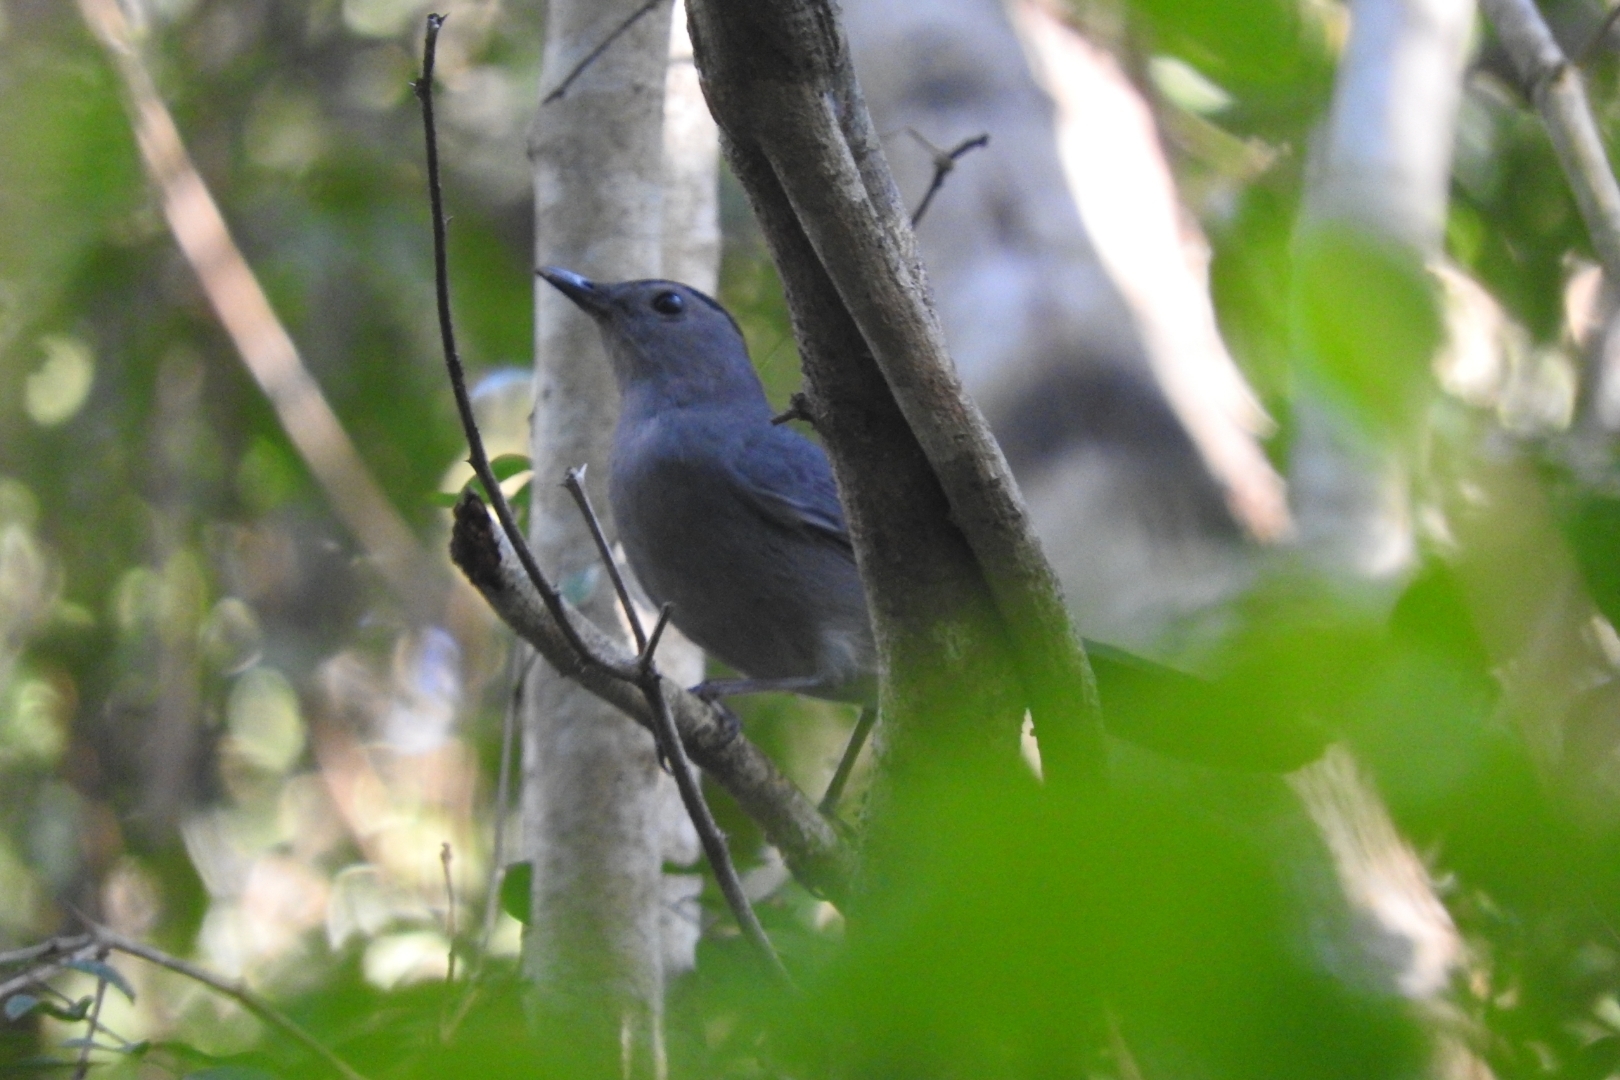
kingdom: Animalia
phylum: Chordata
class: Aves
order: Passeriformes
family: Mimidae
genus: Dumetella
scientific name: Dumetella carolinensis
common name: Gray catbird
